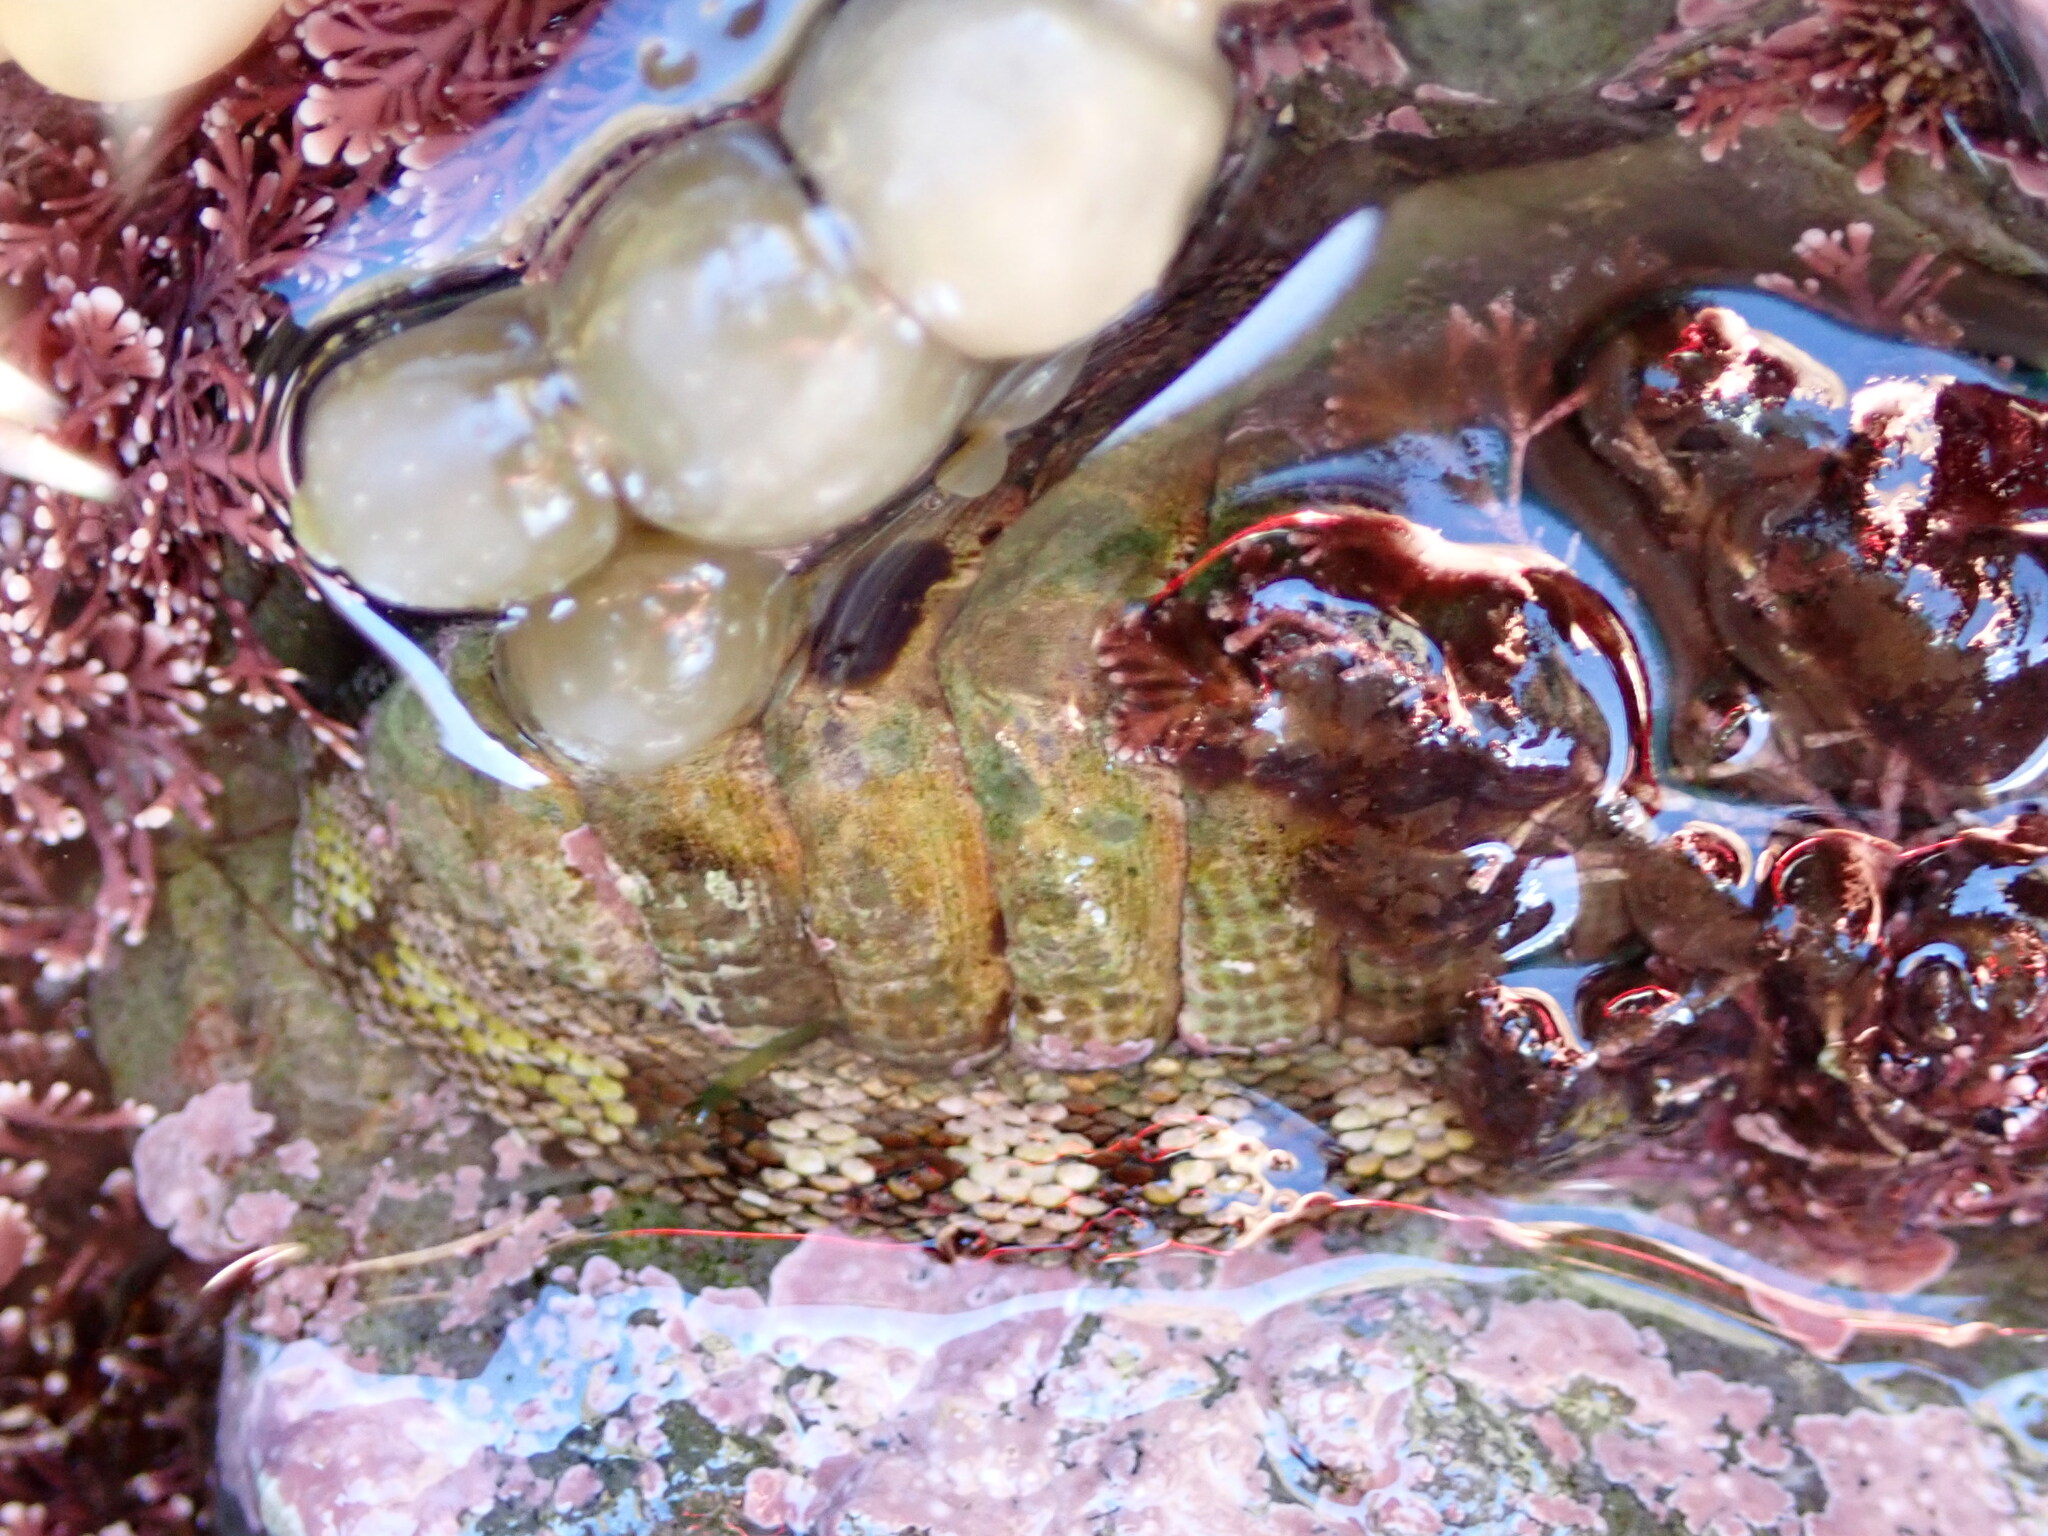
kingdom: Animalia
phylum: Mollusca
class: Polyplacophora
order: Chitonida
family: Chitonidae
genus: Sypharochiton
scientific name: Sypharochiton pelliserpentis
